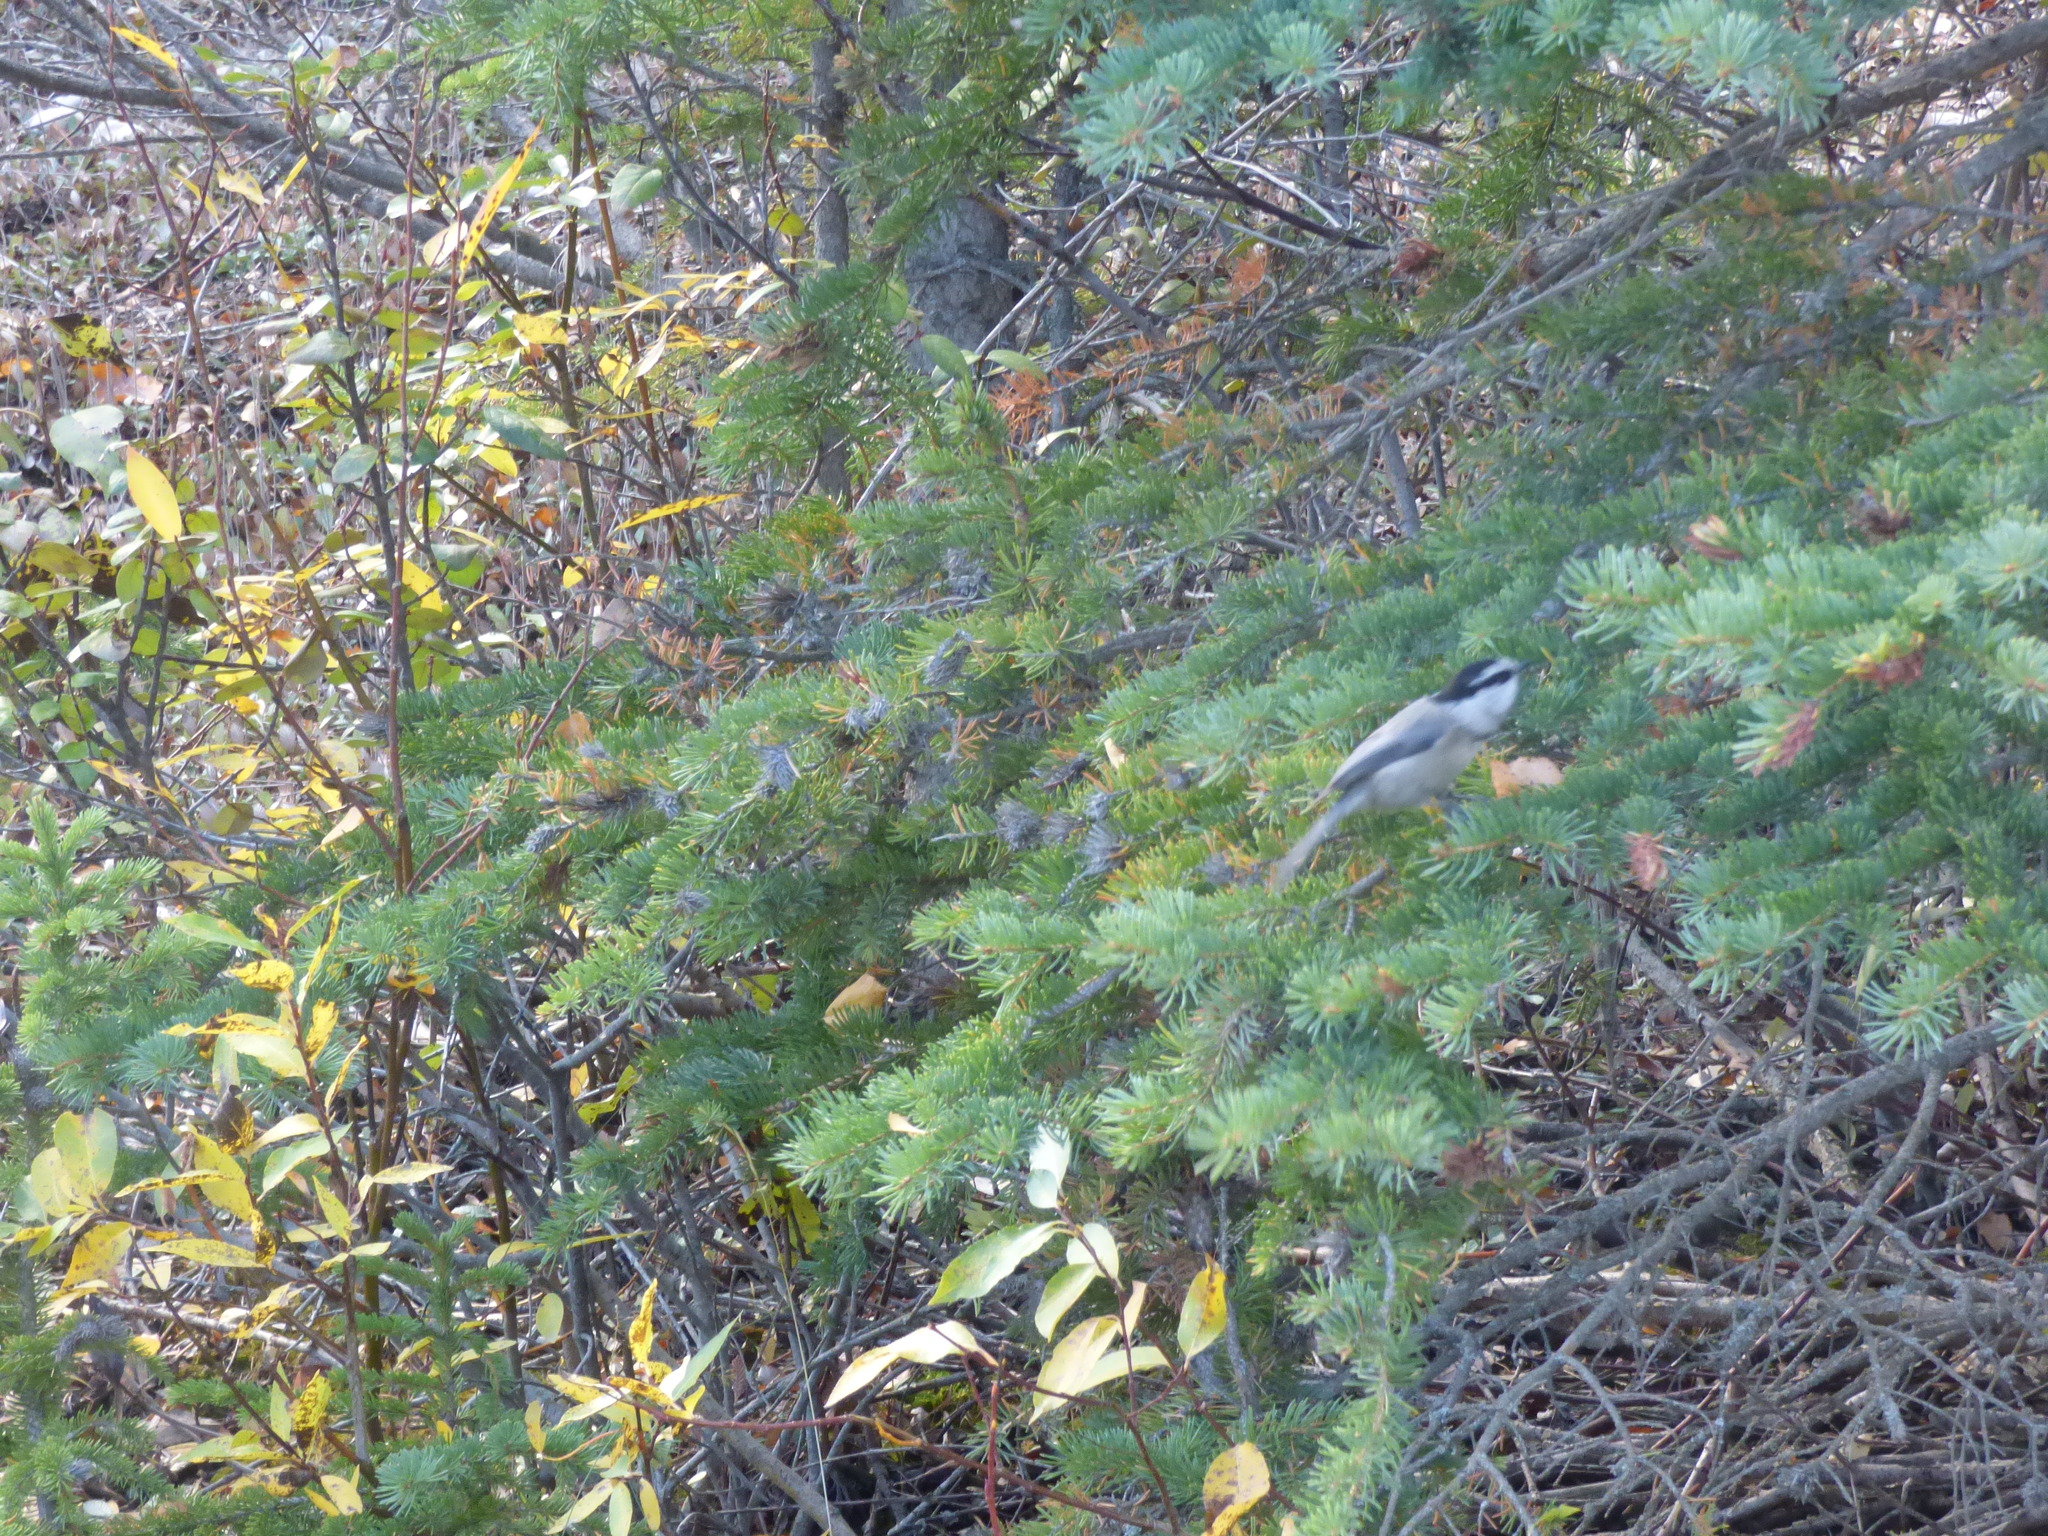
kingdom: Animalia
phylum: Chordata
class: Aves
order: Passeriformes
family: Paridae
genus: Poecile
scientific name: Poecile gambeli
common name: Mountain chickadee
